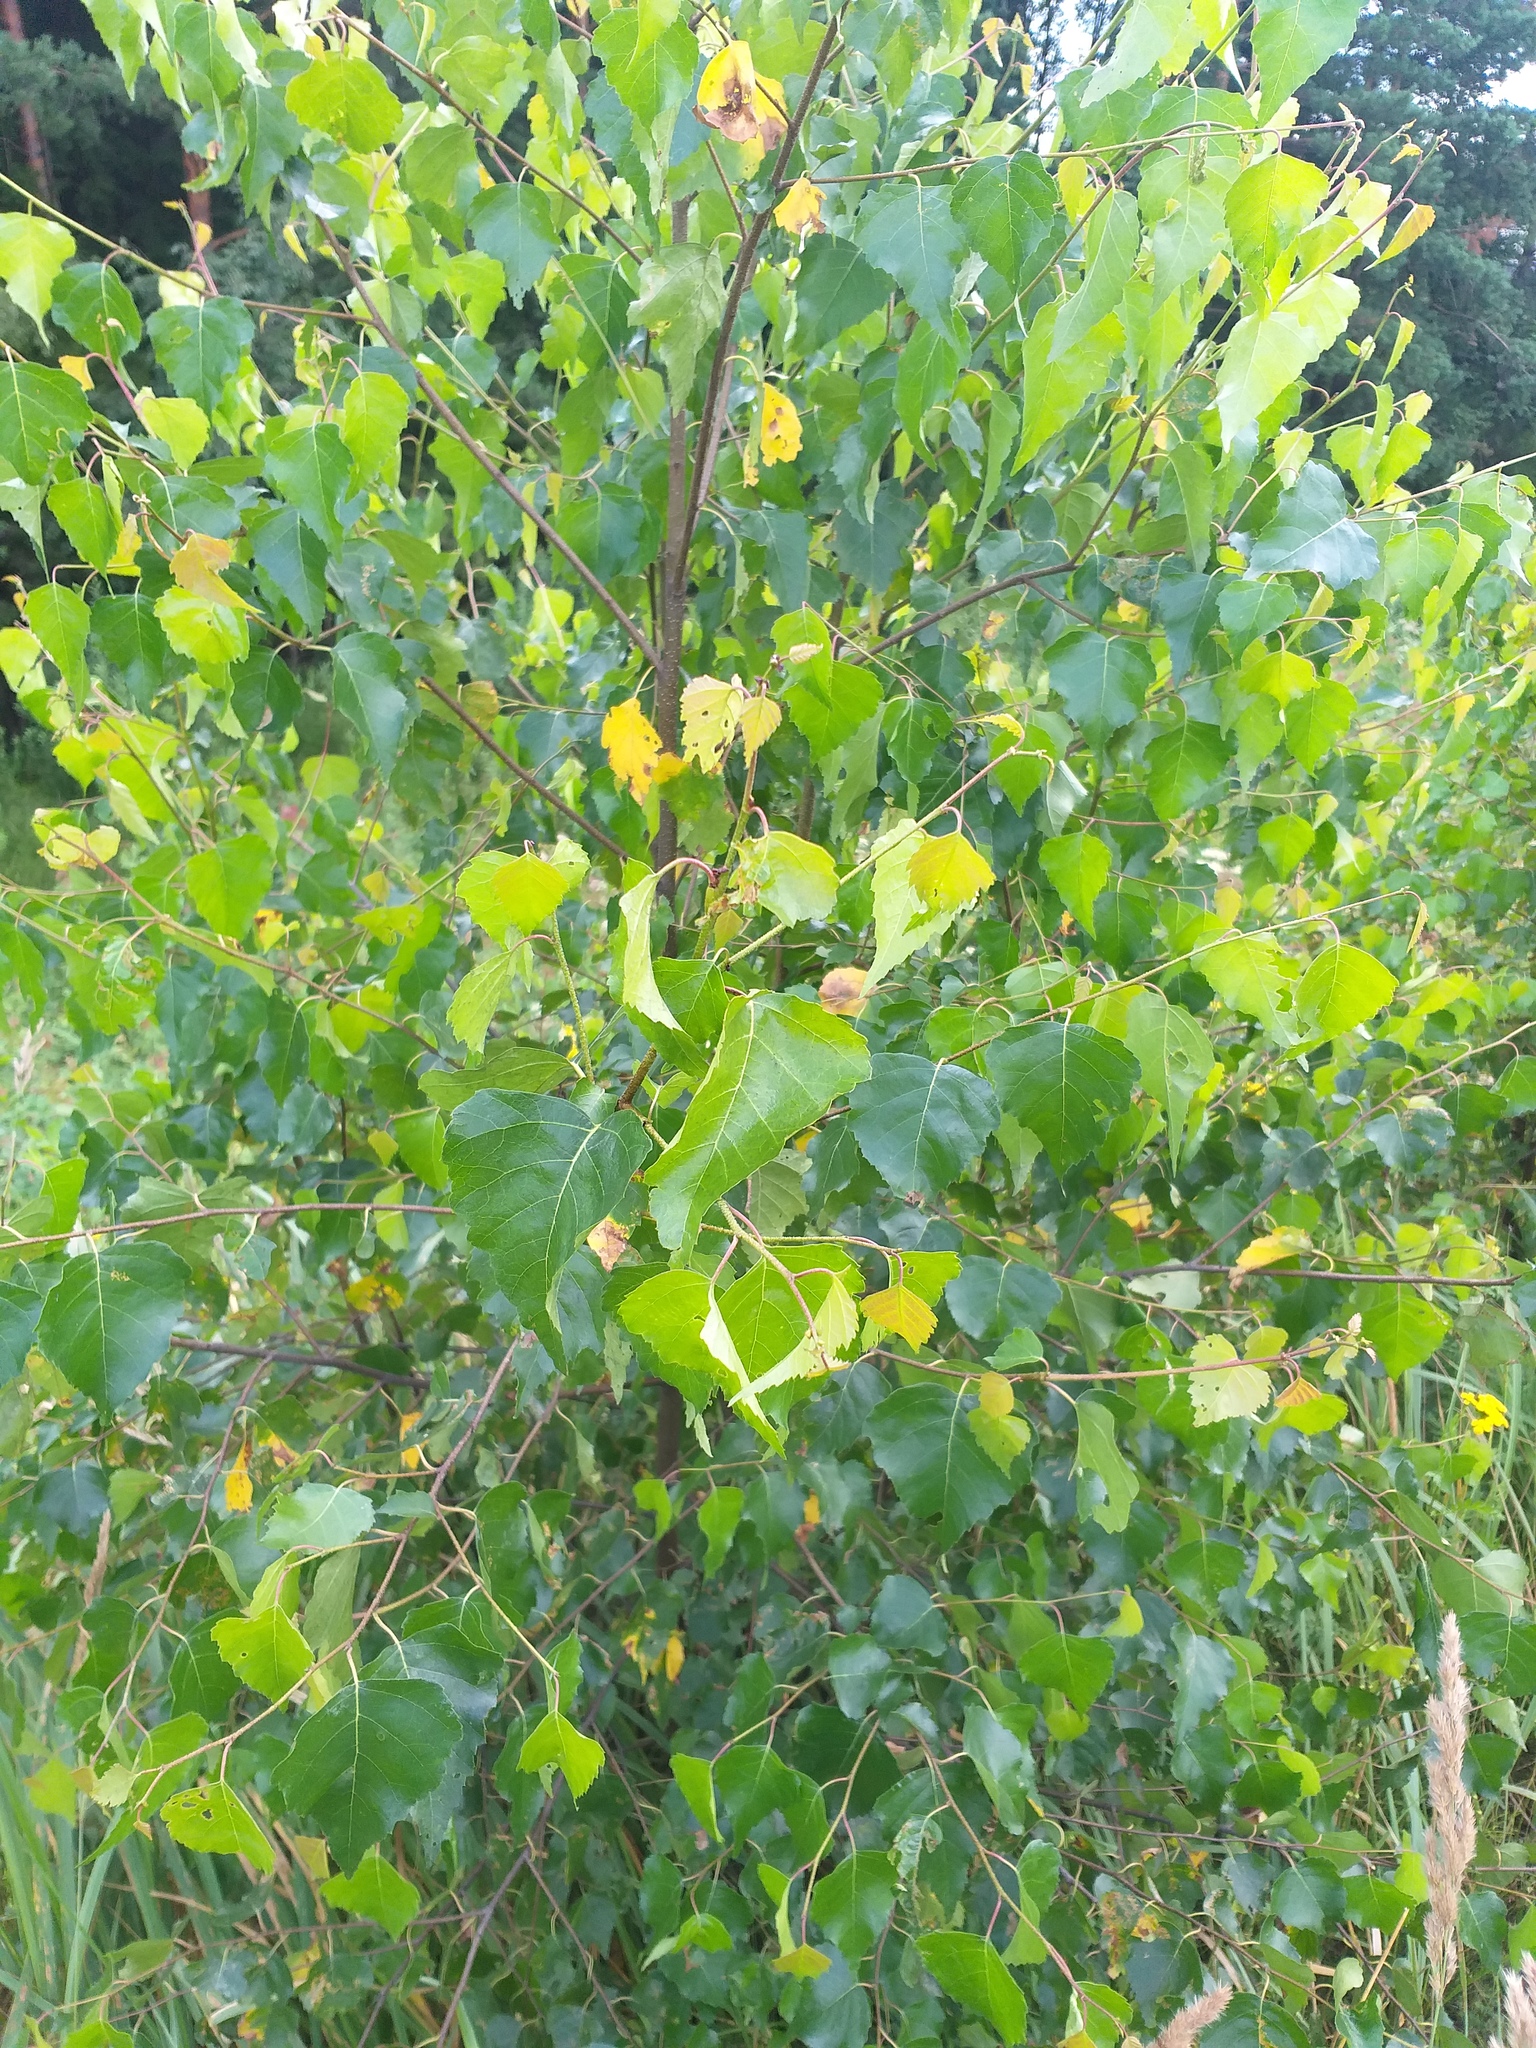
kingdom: Plantae
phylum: Tracheophyta
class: Magnoliopsida
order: Fagales
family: Betulaceae
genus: Betula
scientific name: Betula pendula
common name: Silver birch
